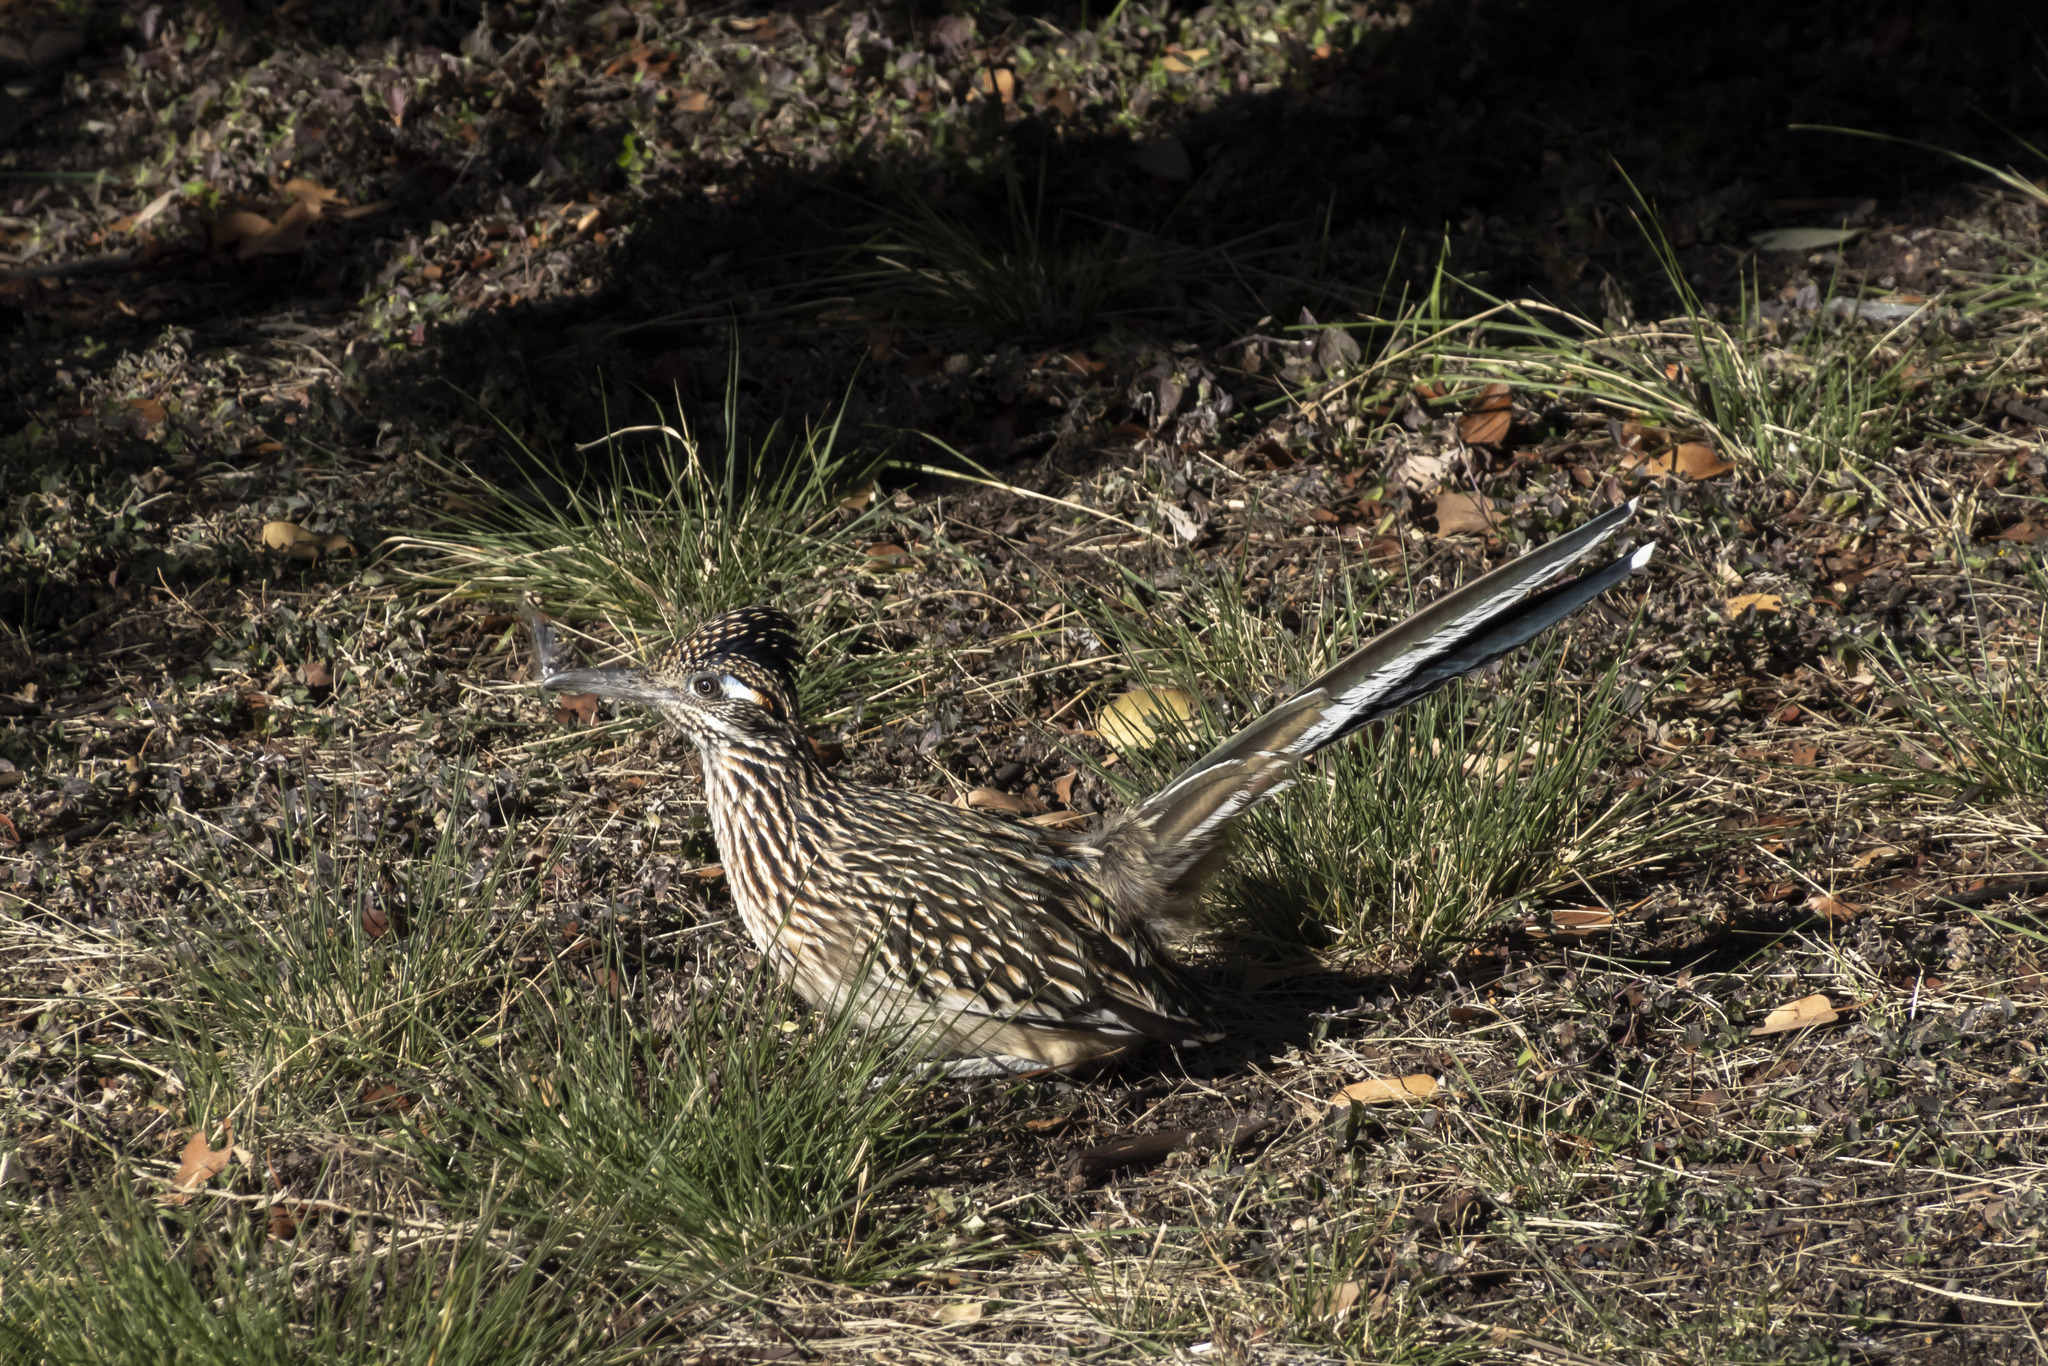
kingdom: Animalia
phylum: Chordata
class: Aves
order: Cuculiformes
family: Cuculidae
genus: Geococcyx
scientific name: Geococcyx californianus
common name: Greater roadrunner
